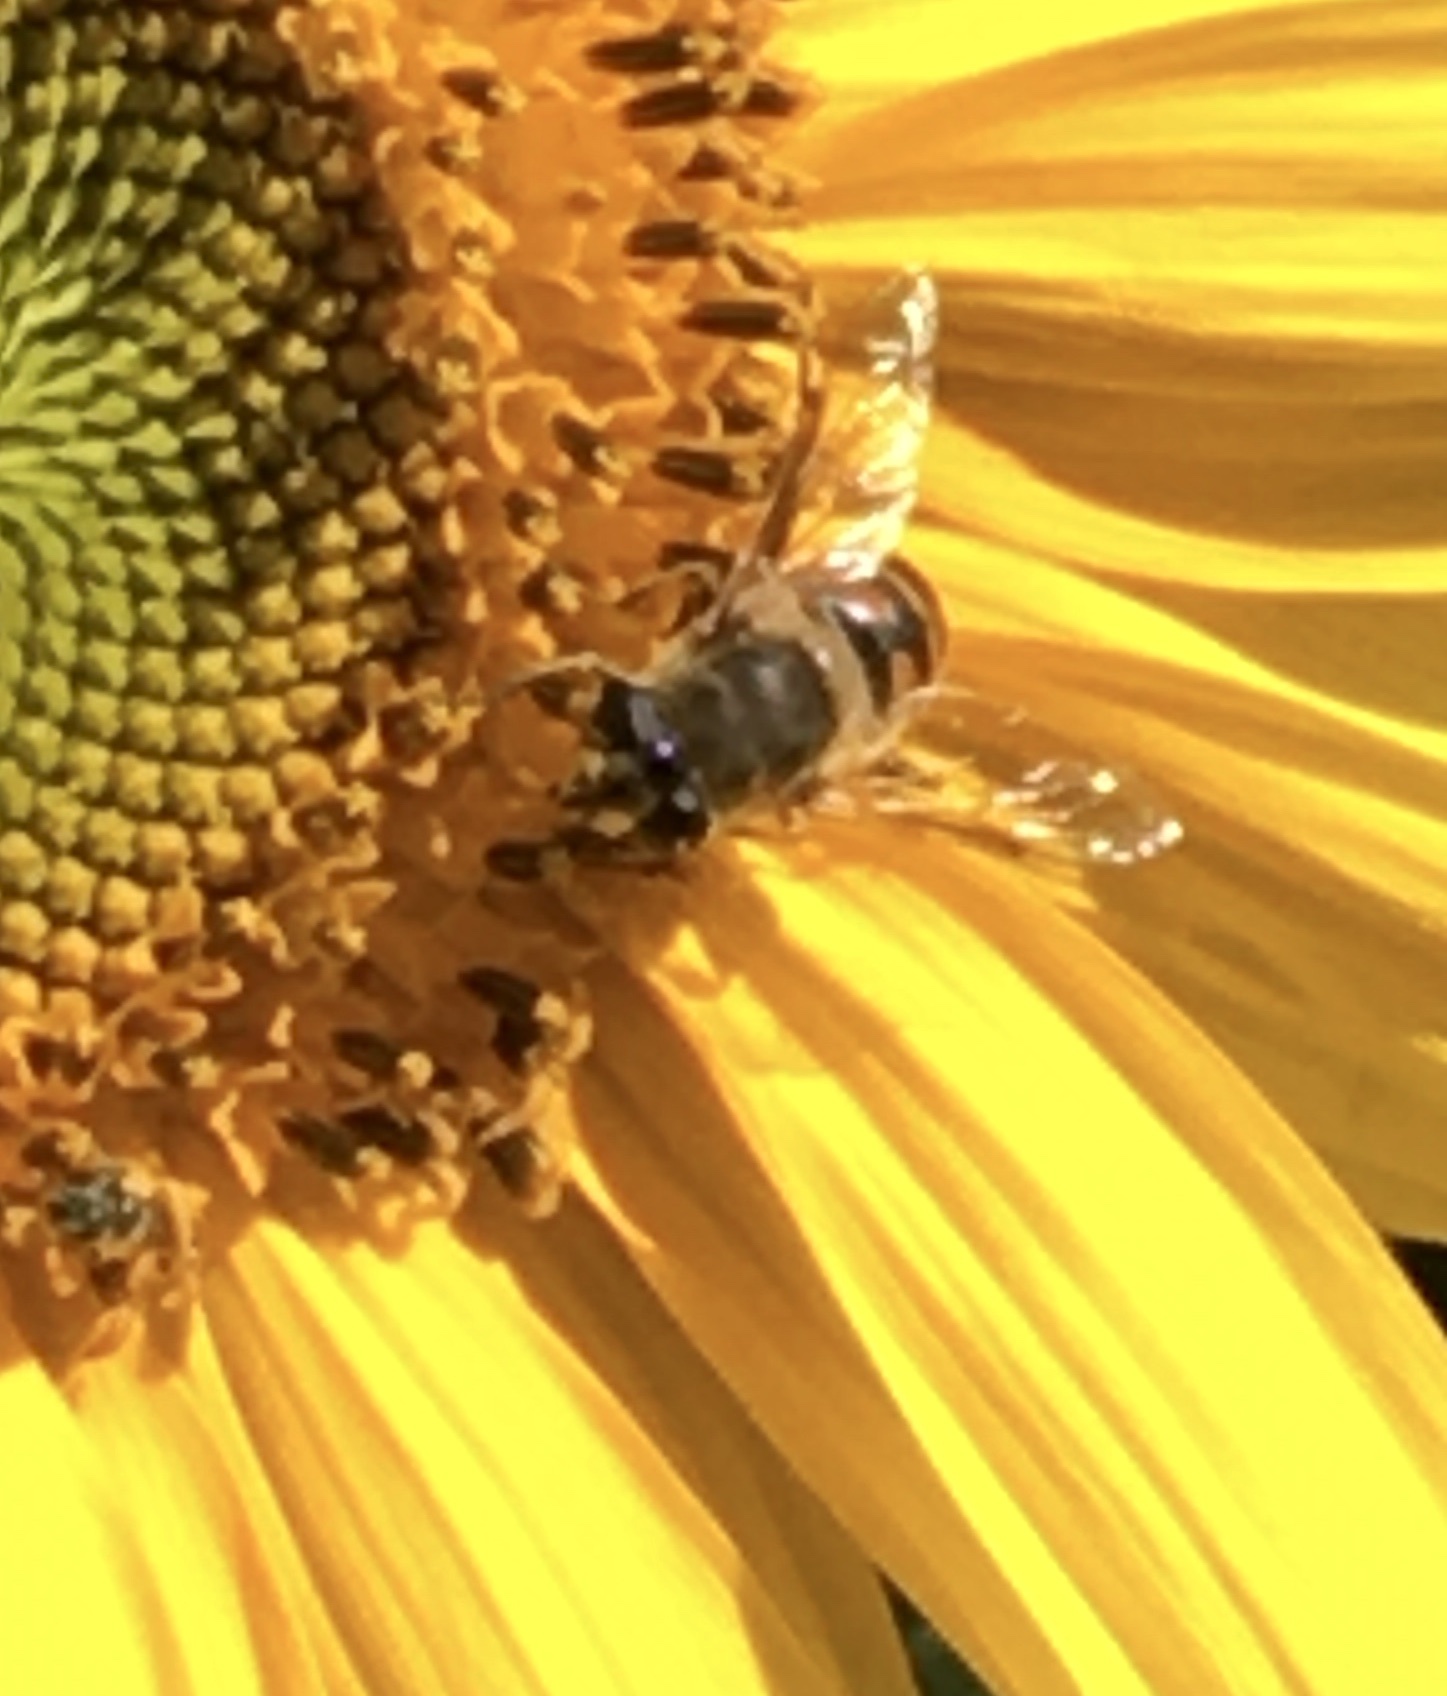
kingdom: Animalia
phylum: Arthropoda
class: Insecta
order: Diptera
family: Syrphidae
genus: Eristalis
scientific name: Eristalis tenax
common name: Drone fly
